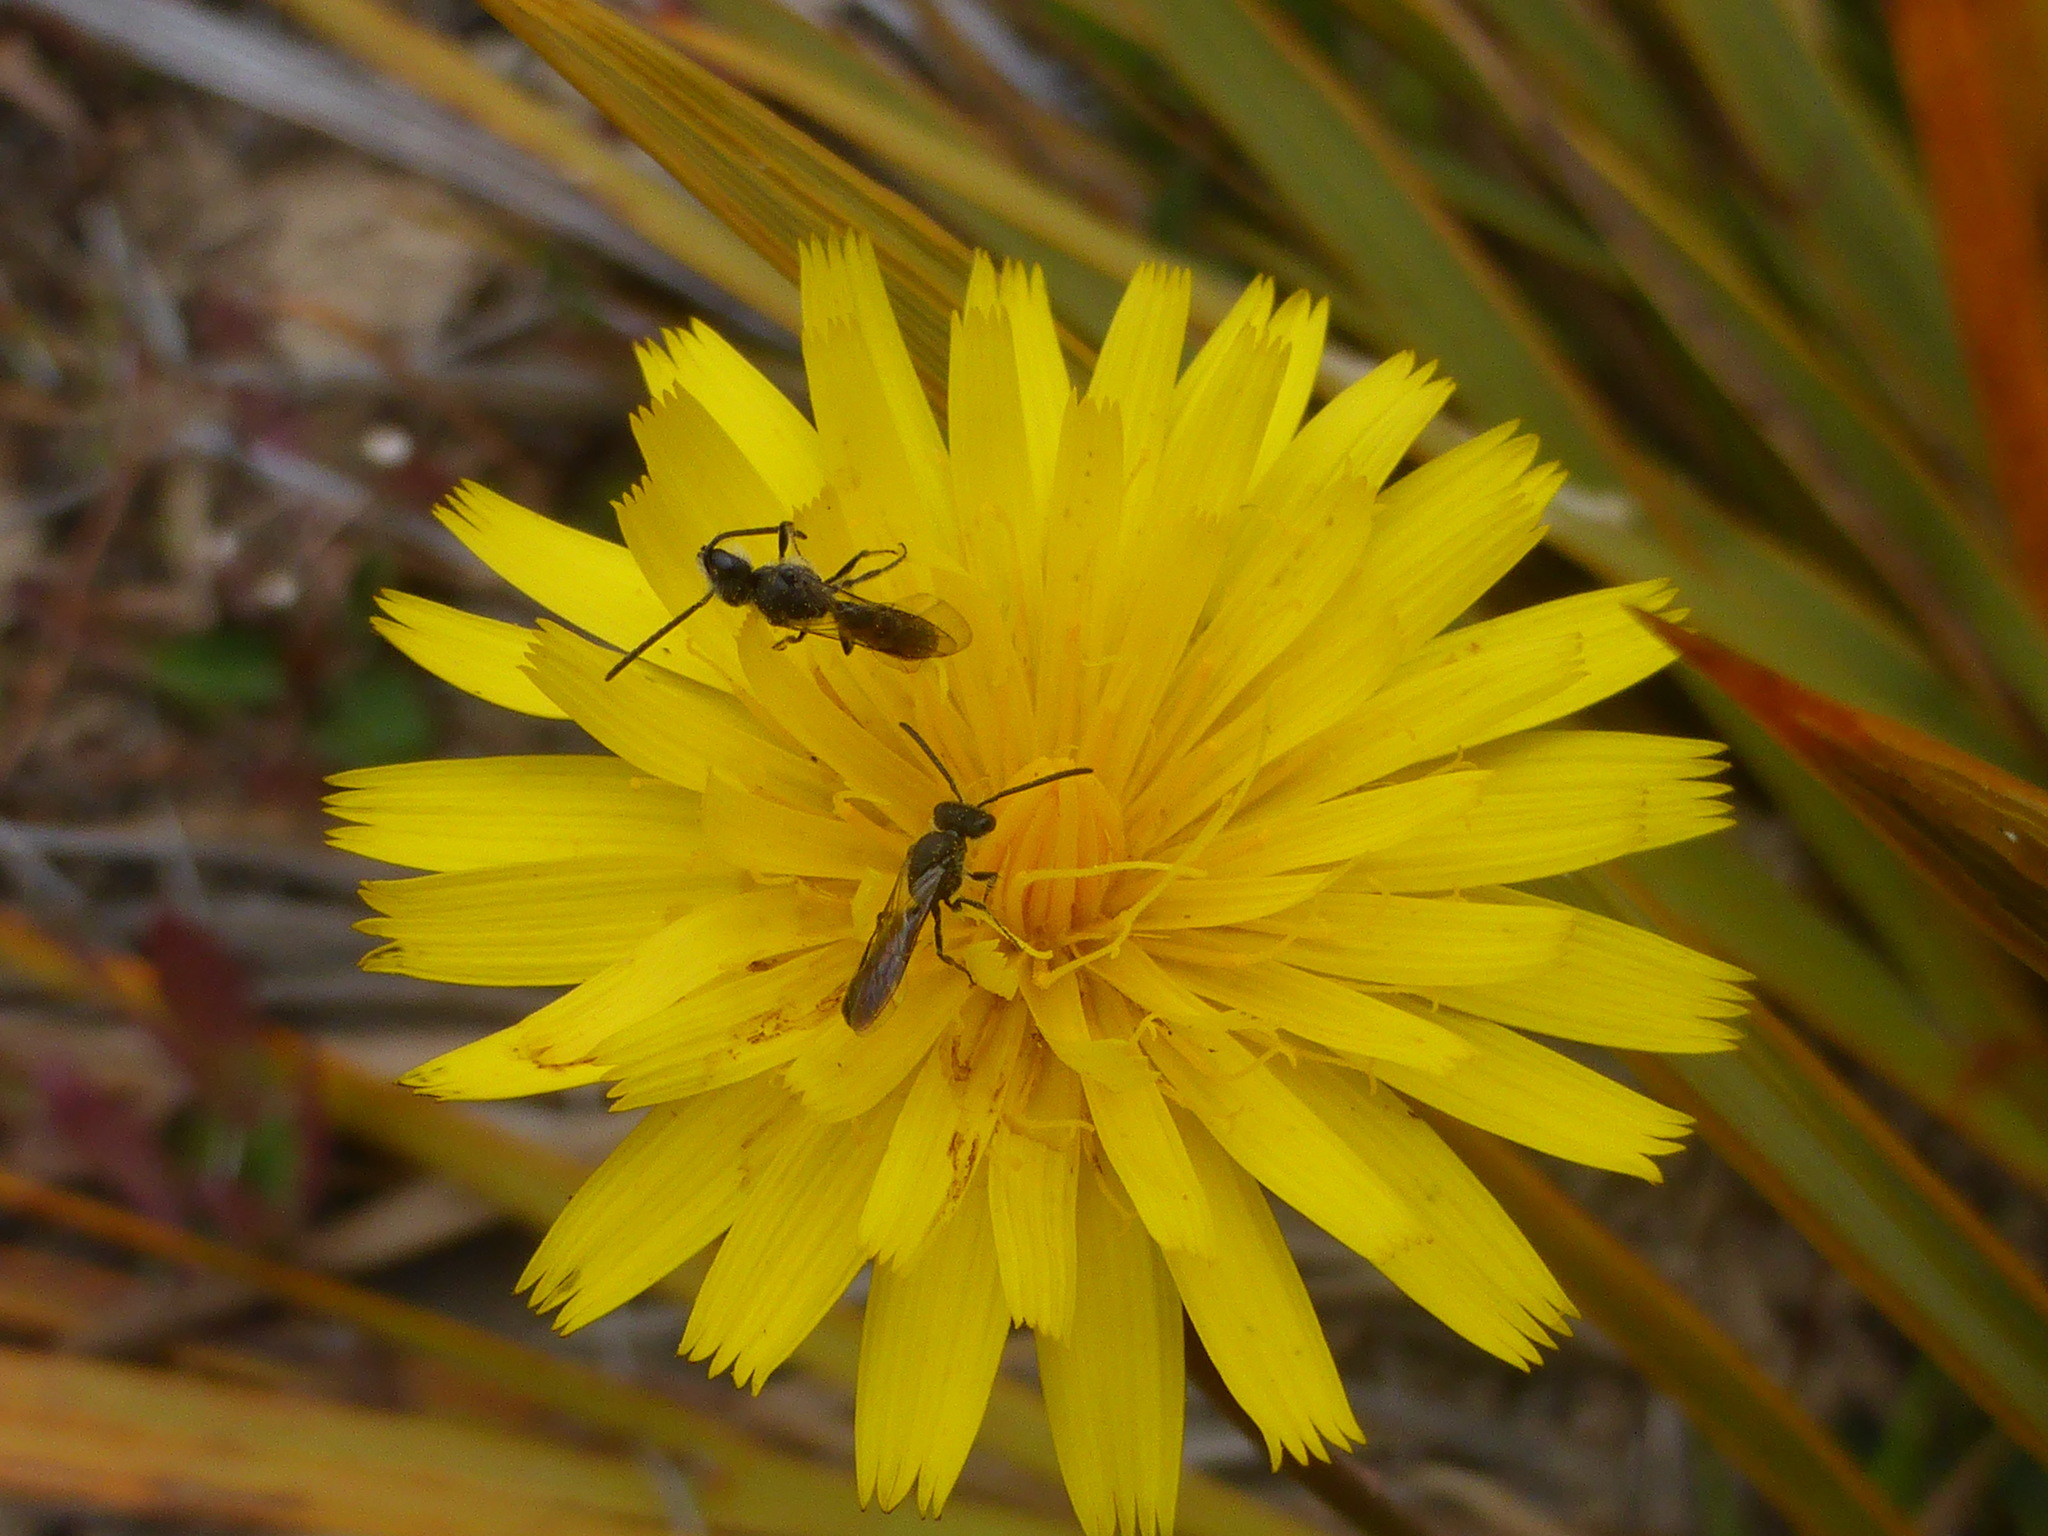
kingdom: Plantae
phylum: Tracheophyta
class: Magnoliopsida
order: Asterales
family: Asteraceae
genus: Hypochaeris
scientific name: Hypochaeris radicata
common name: Flatweed
